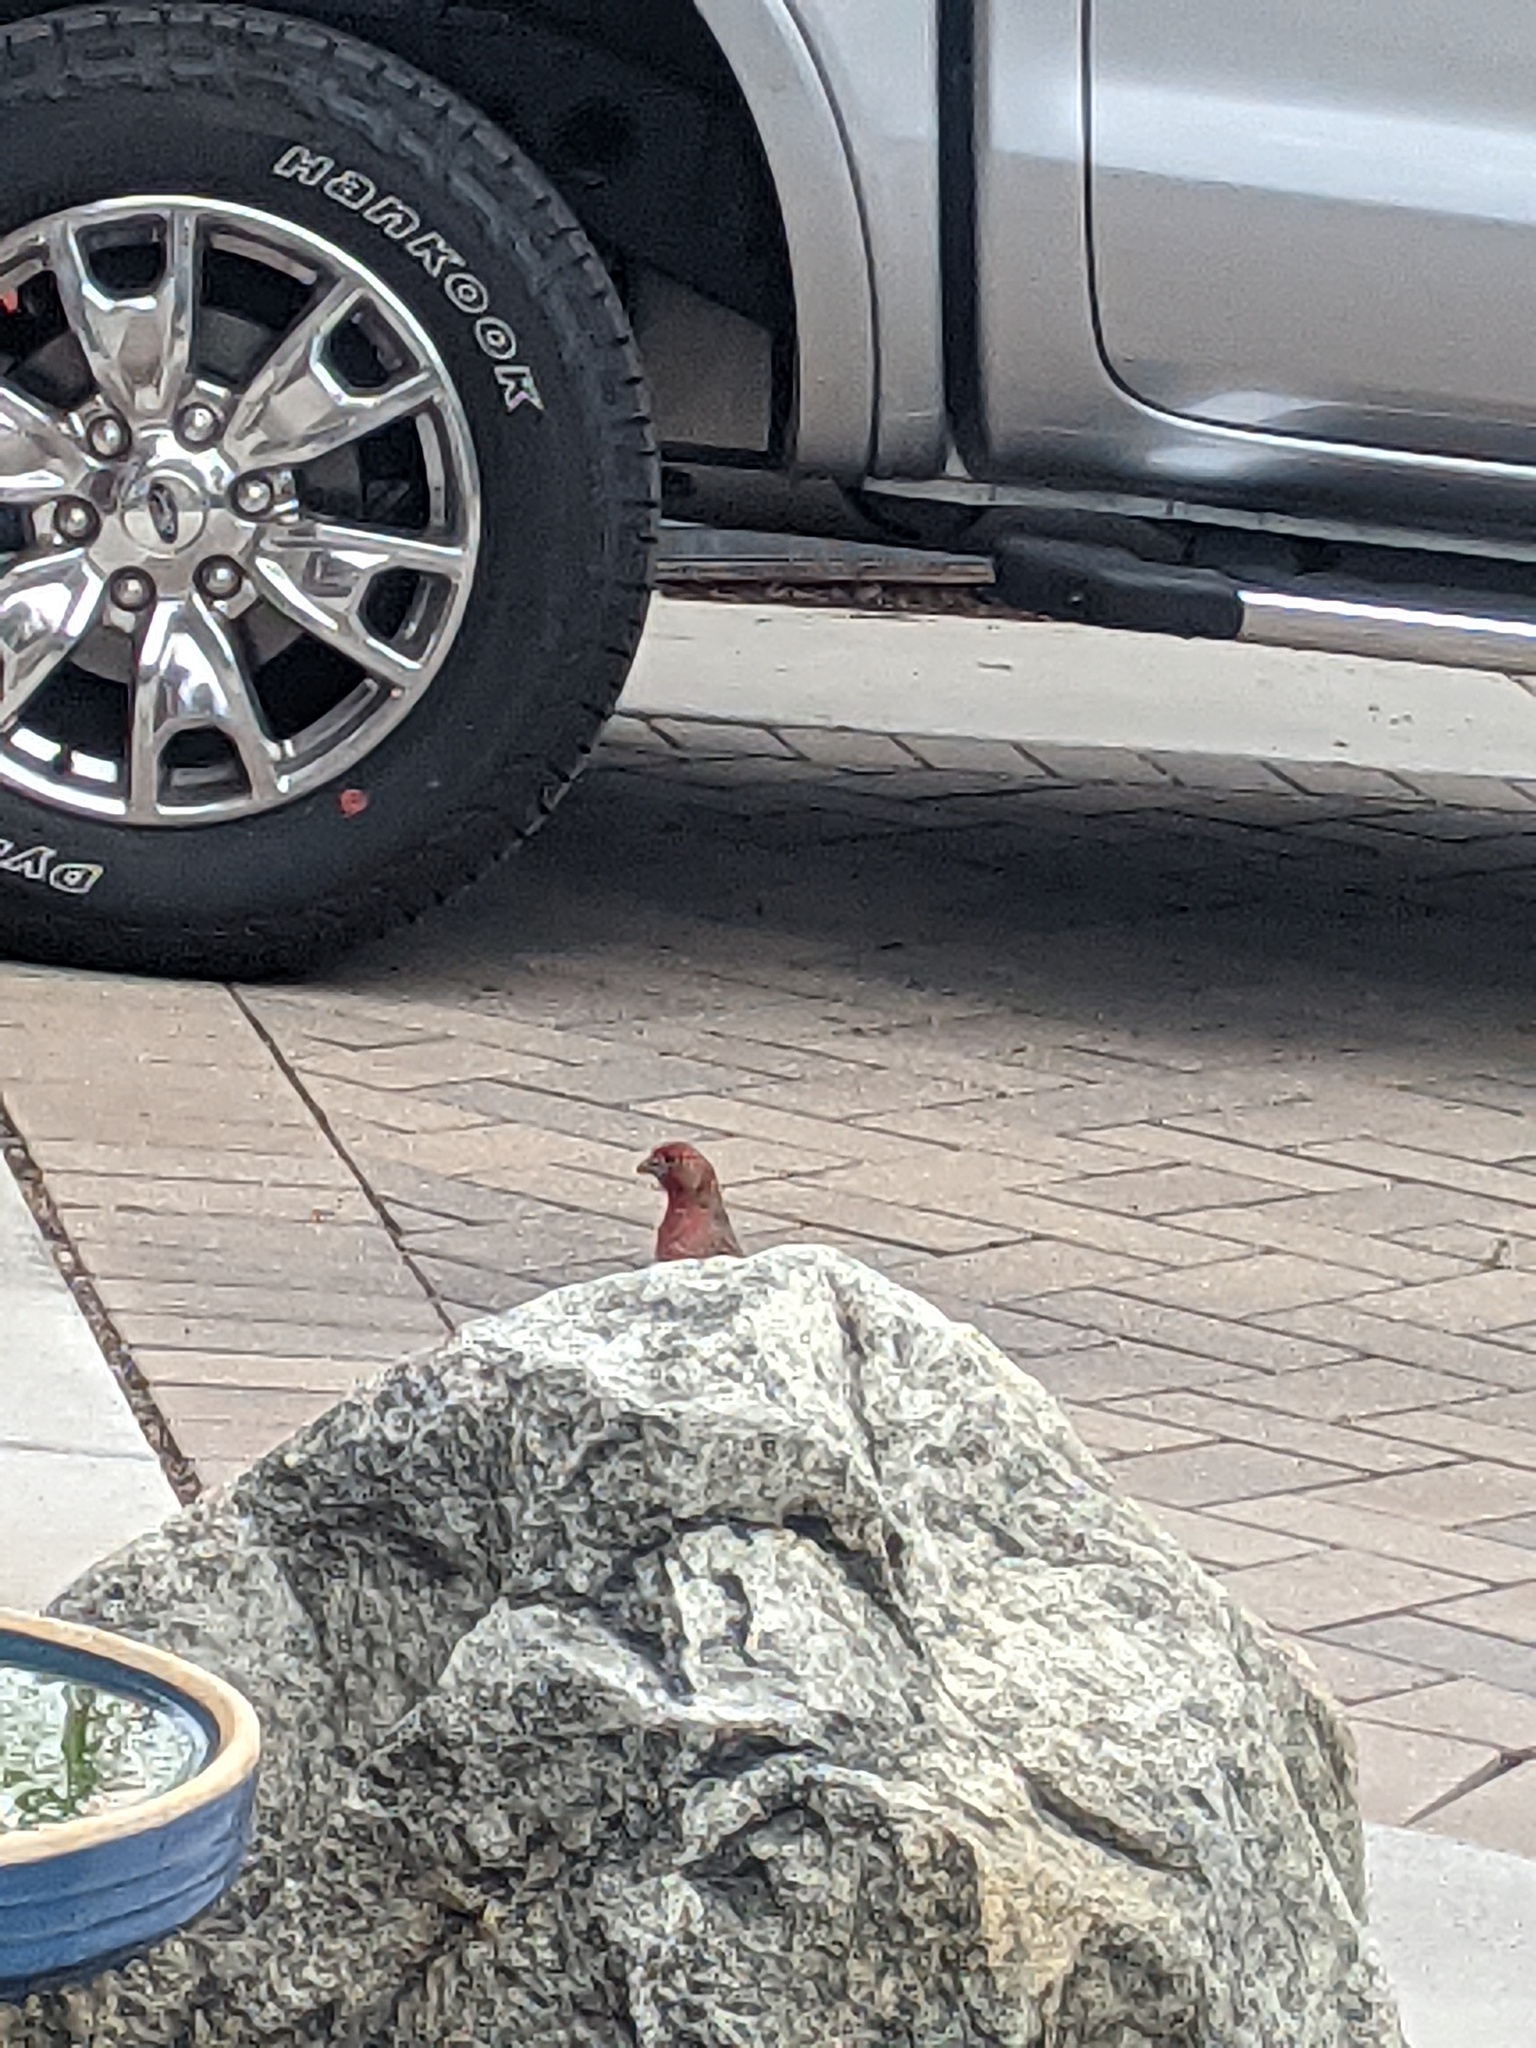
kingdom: Animalia
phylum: Chordata
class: Aves
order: Passeriformes
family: Fringillidae
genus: Haemorhous
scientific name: Haemorhous mexicanus
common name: House finch
